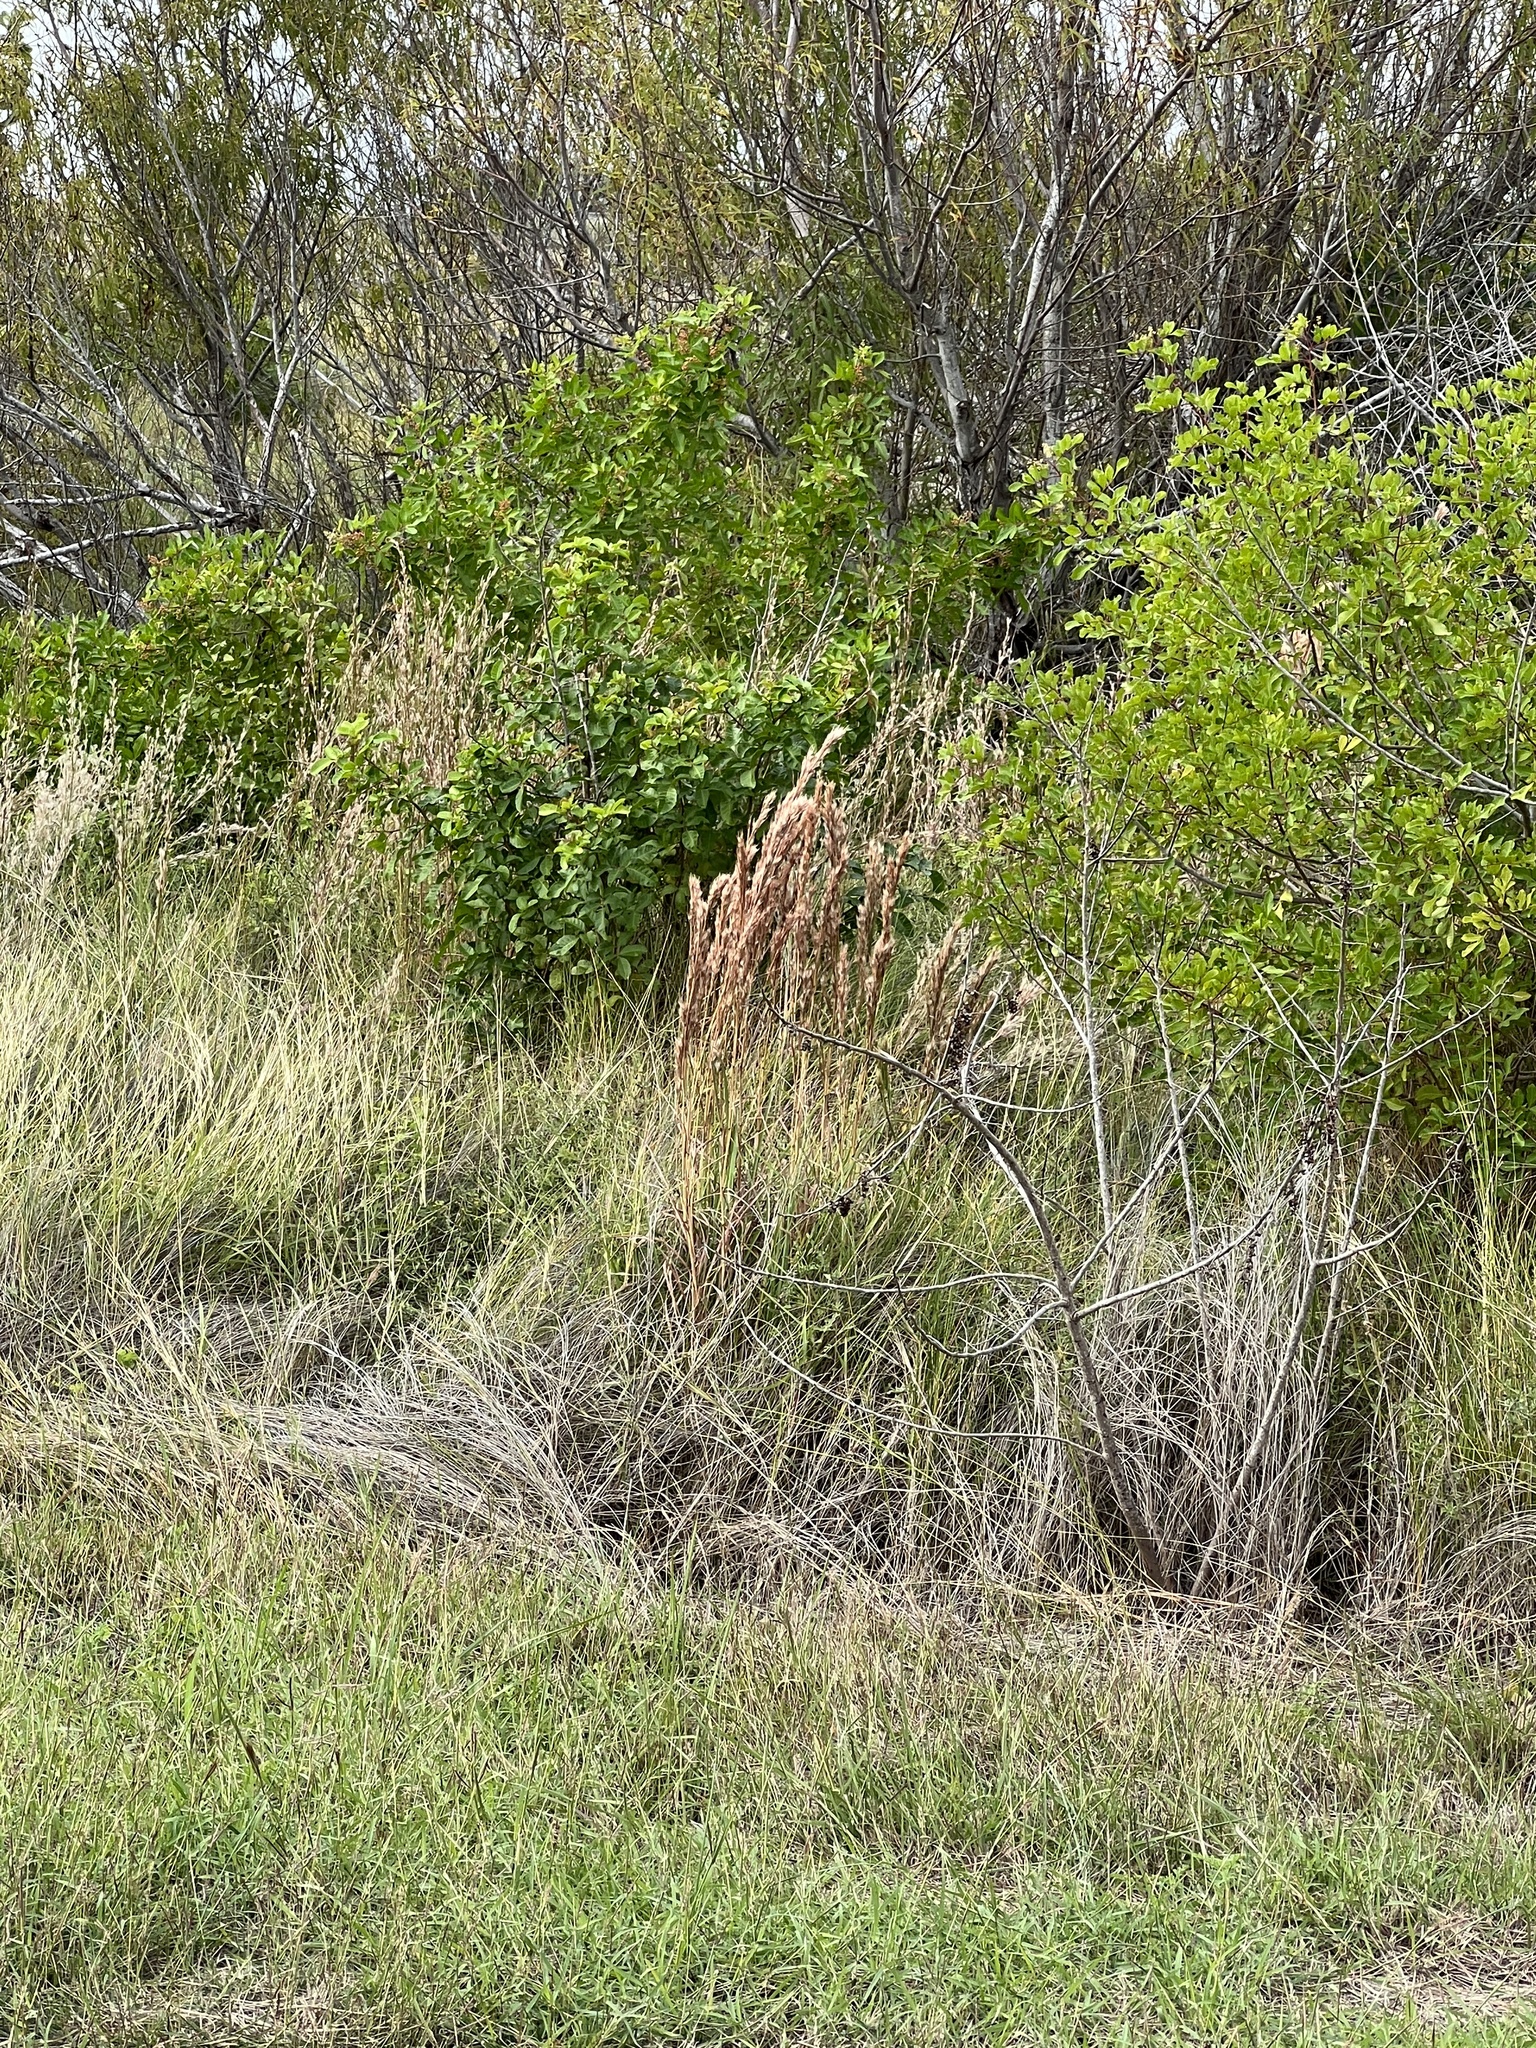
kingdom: Plantae
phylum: Tracheophyta
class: Liliopsida
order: Poales
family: Poaceae
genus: Andropogon
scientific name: Andropogon tenuispatheus
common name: Bushy bluestem
